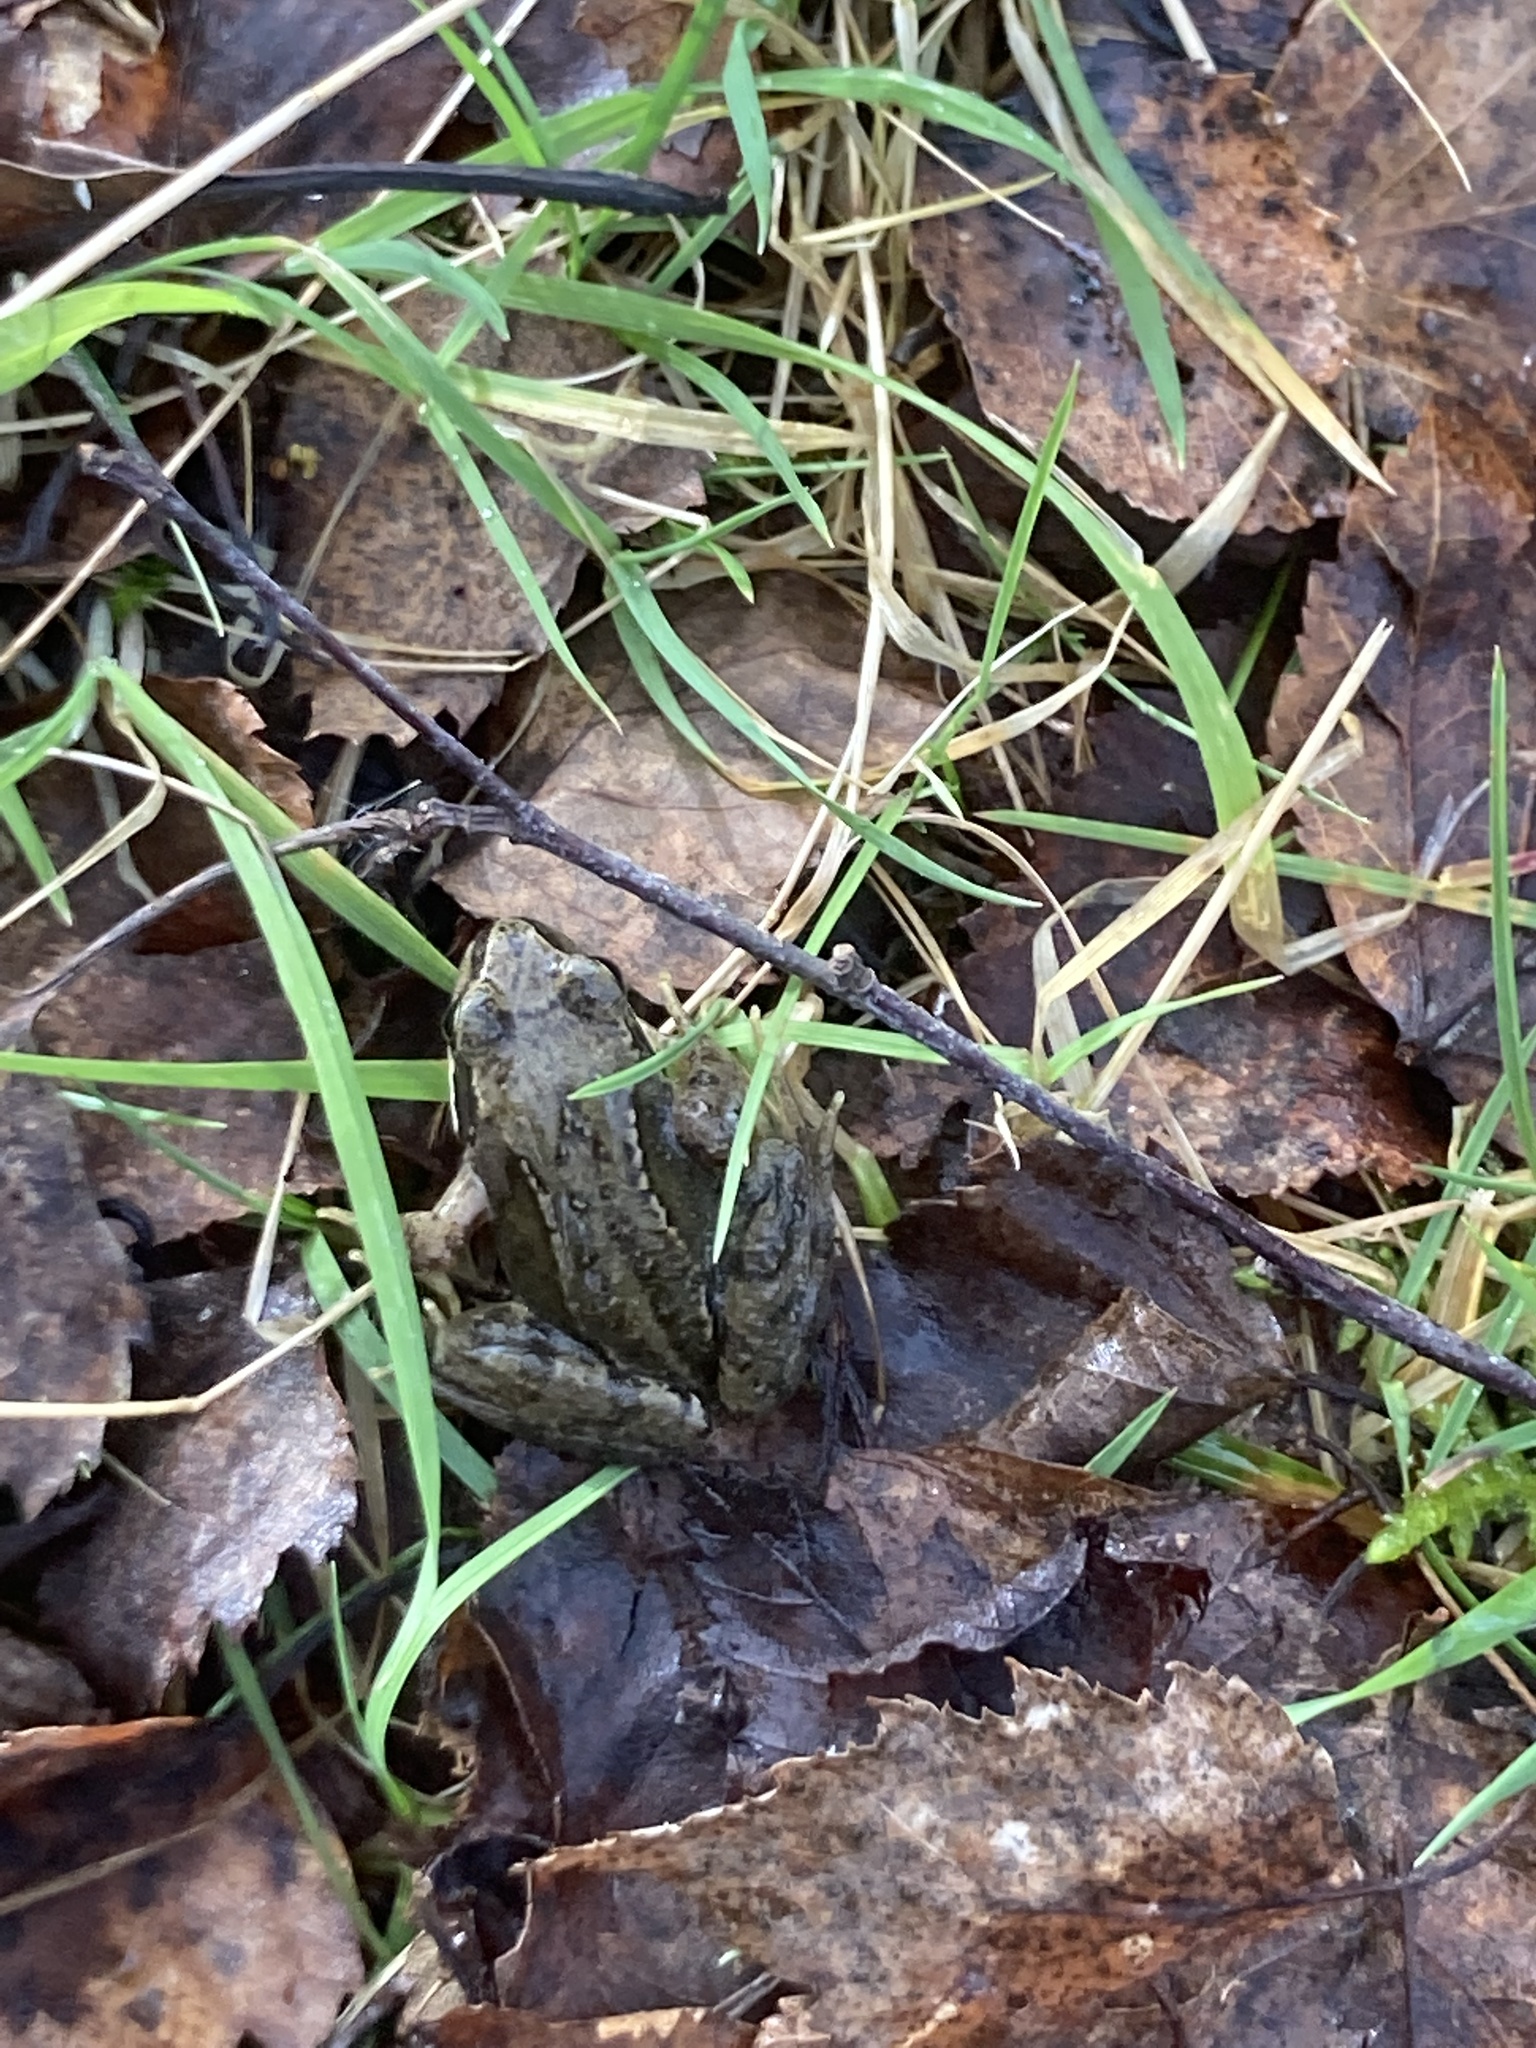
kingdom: Animalia
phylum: Chordata
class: Amphibia
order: Anura
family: Ranidae
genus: Rana
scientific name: Rana temporaria
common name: Common frog
